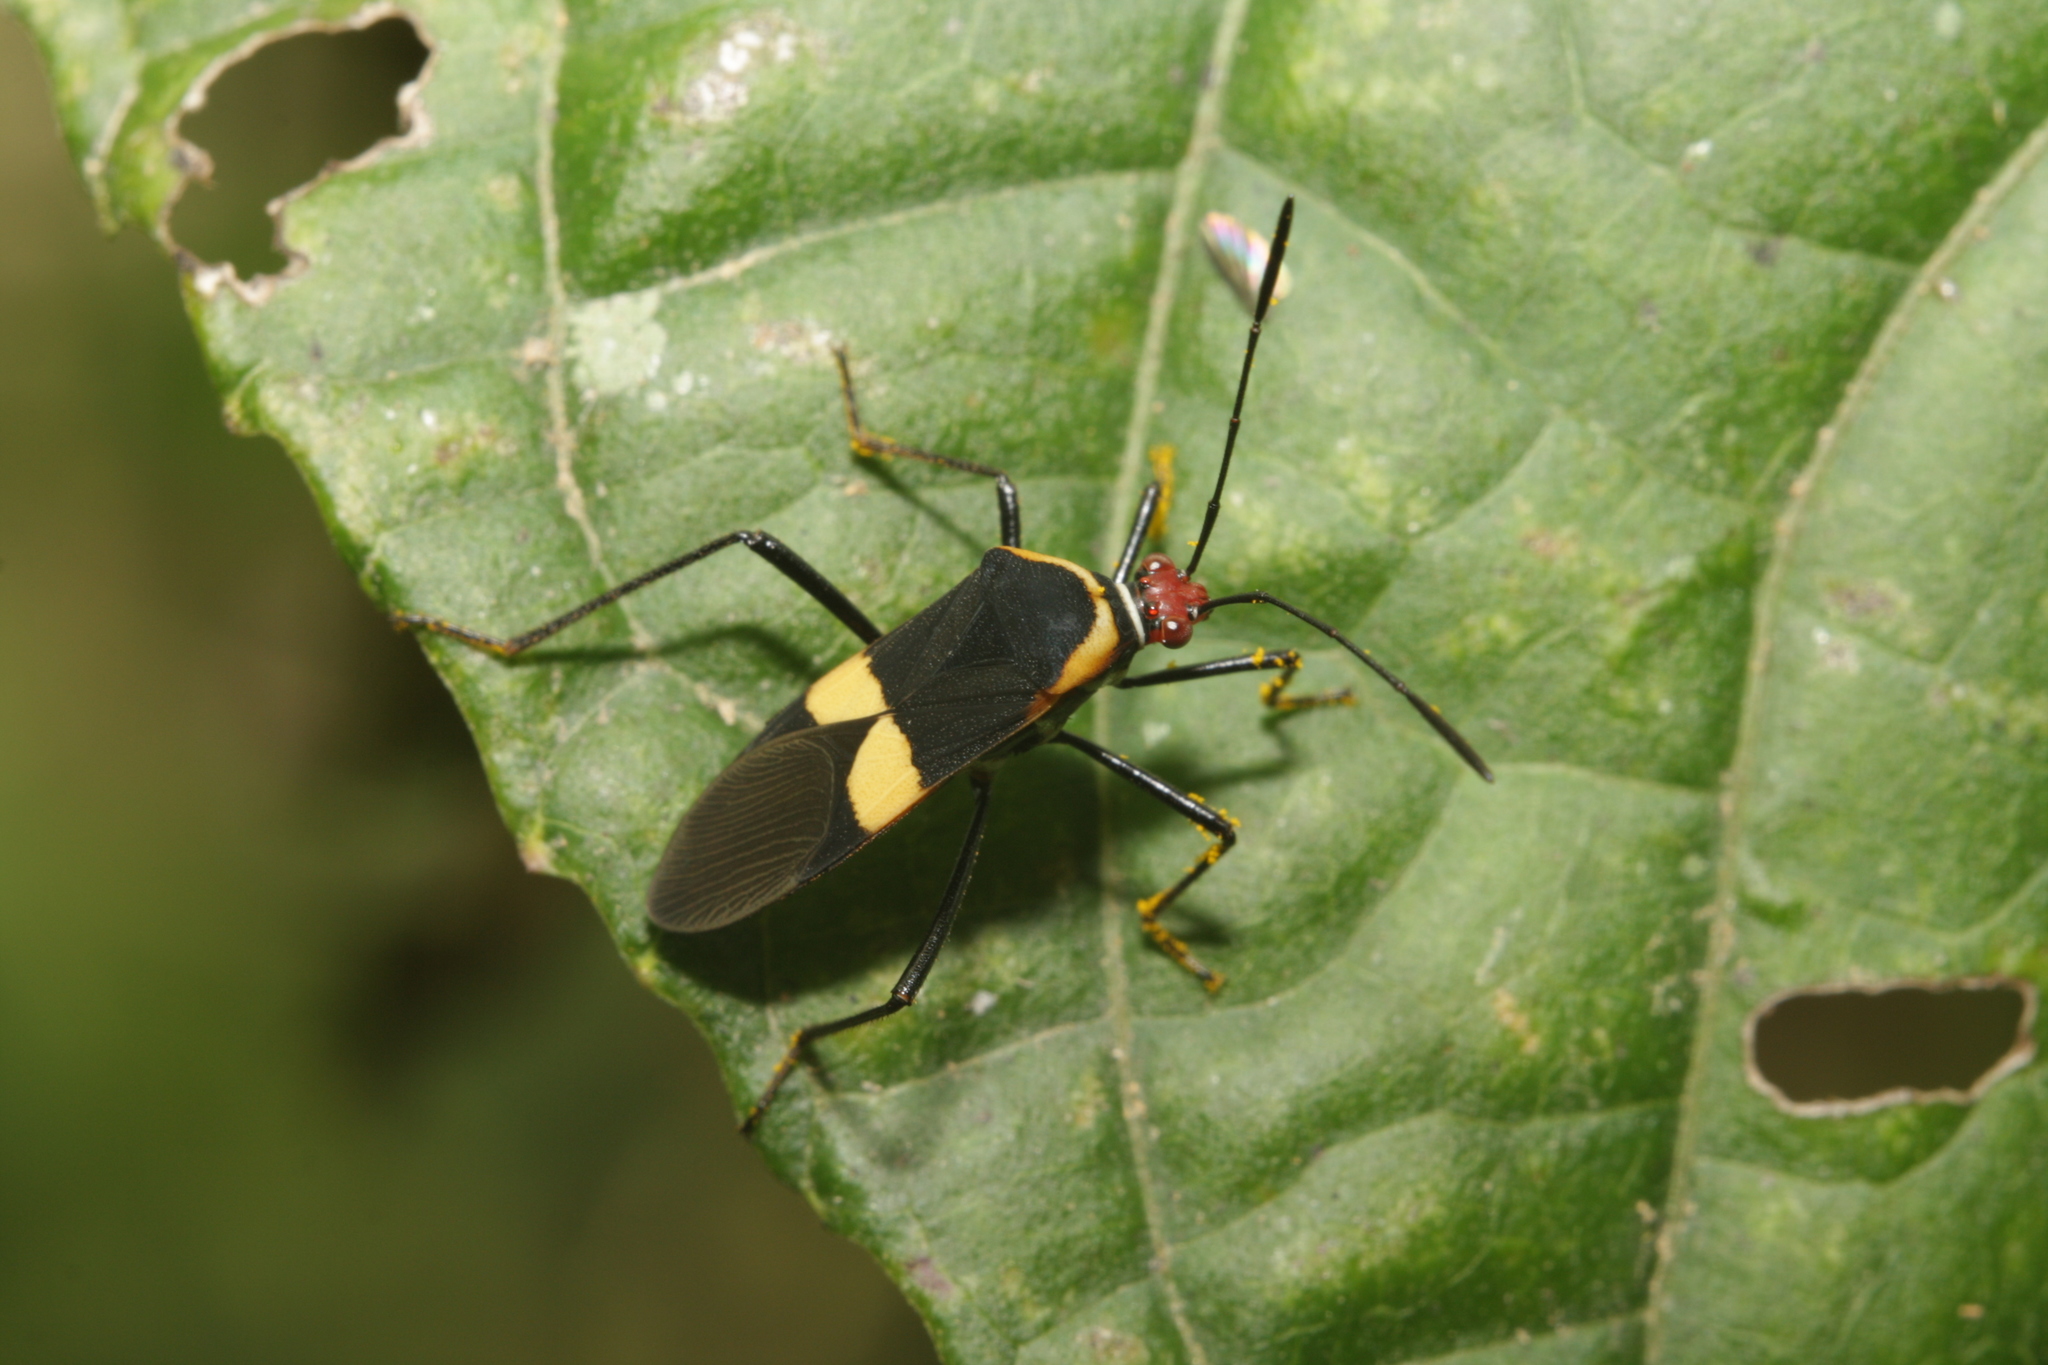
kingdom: Animalia
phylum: Arthropoda
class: Insecta
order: Hemiptera
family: Coreidae
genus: Hypselonotus
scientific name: Hypselonotus interruptus
